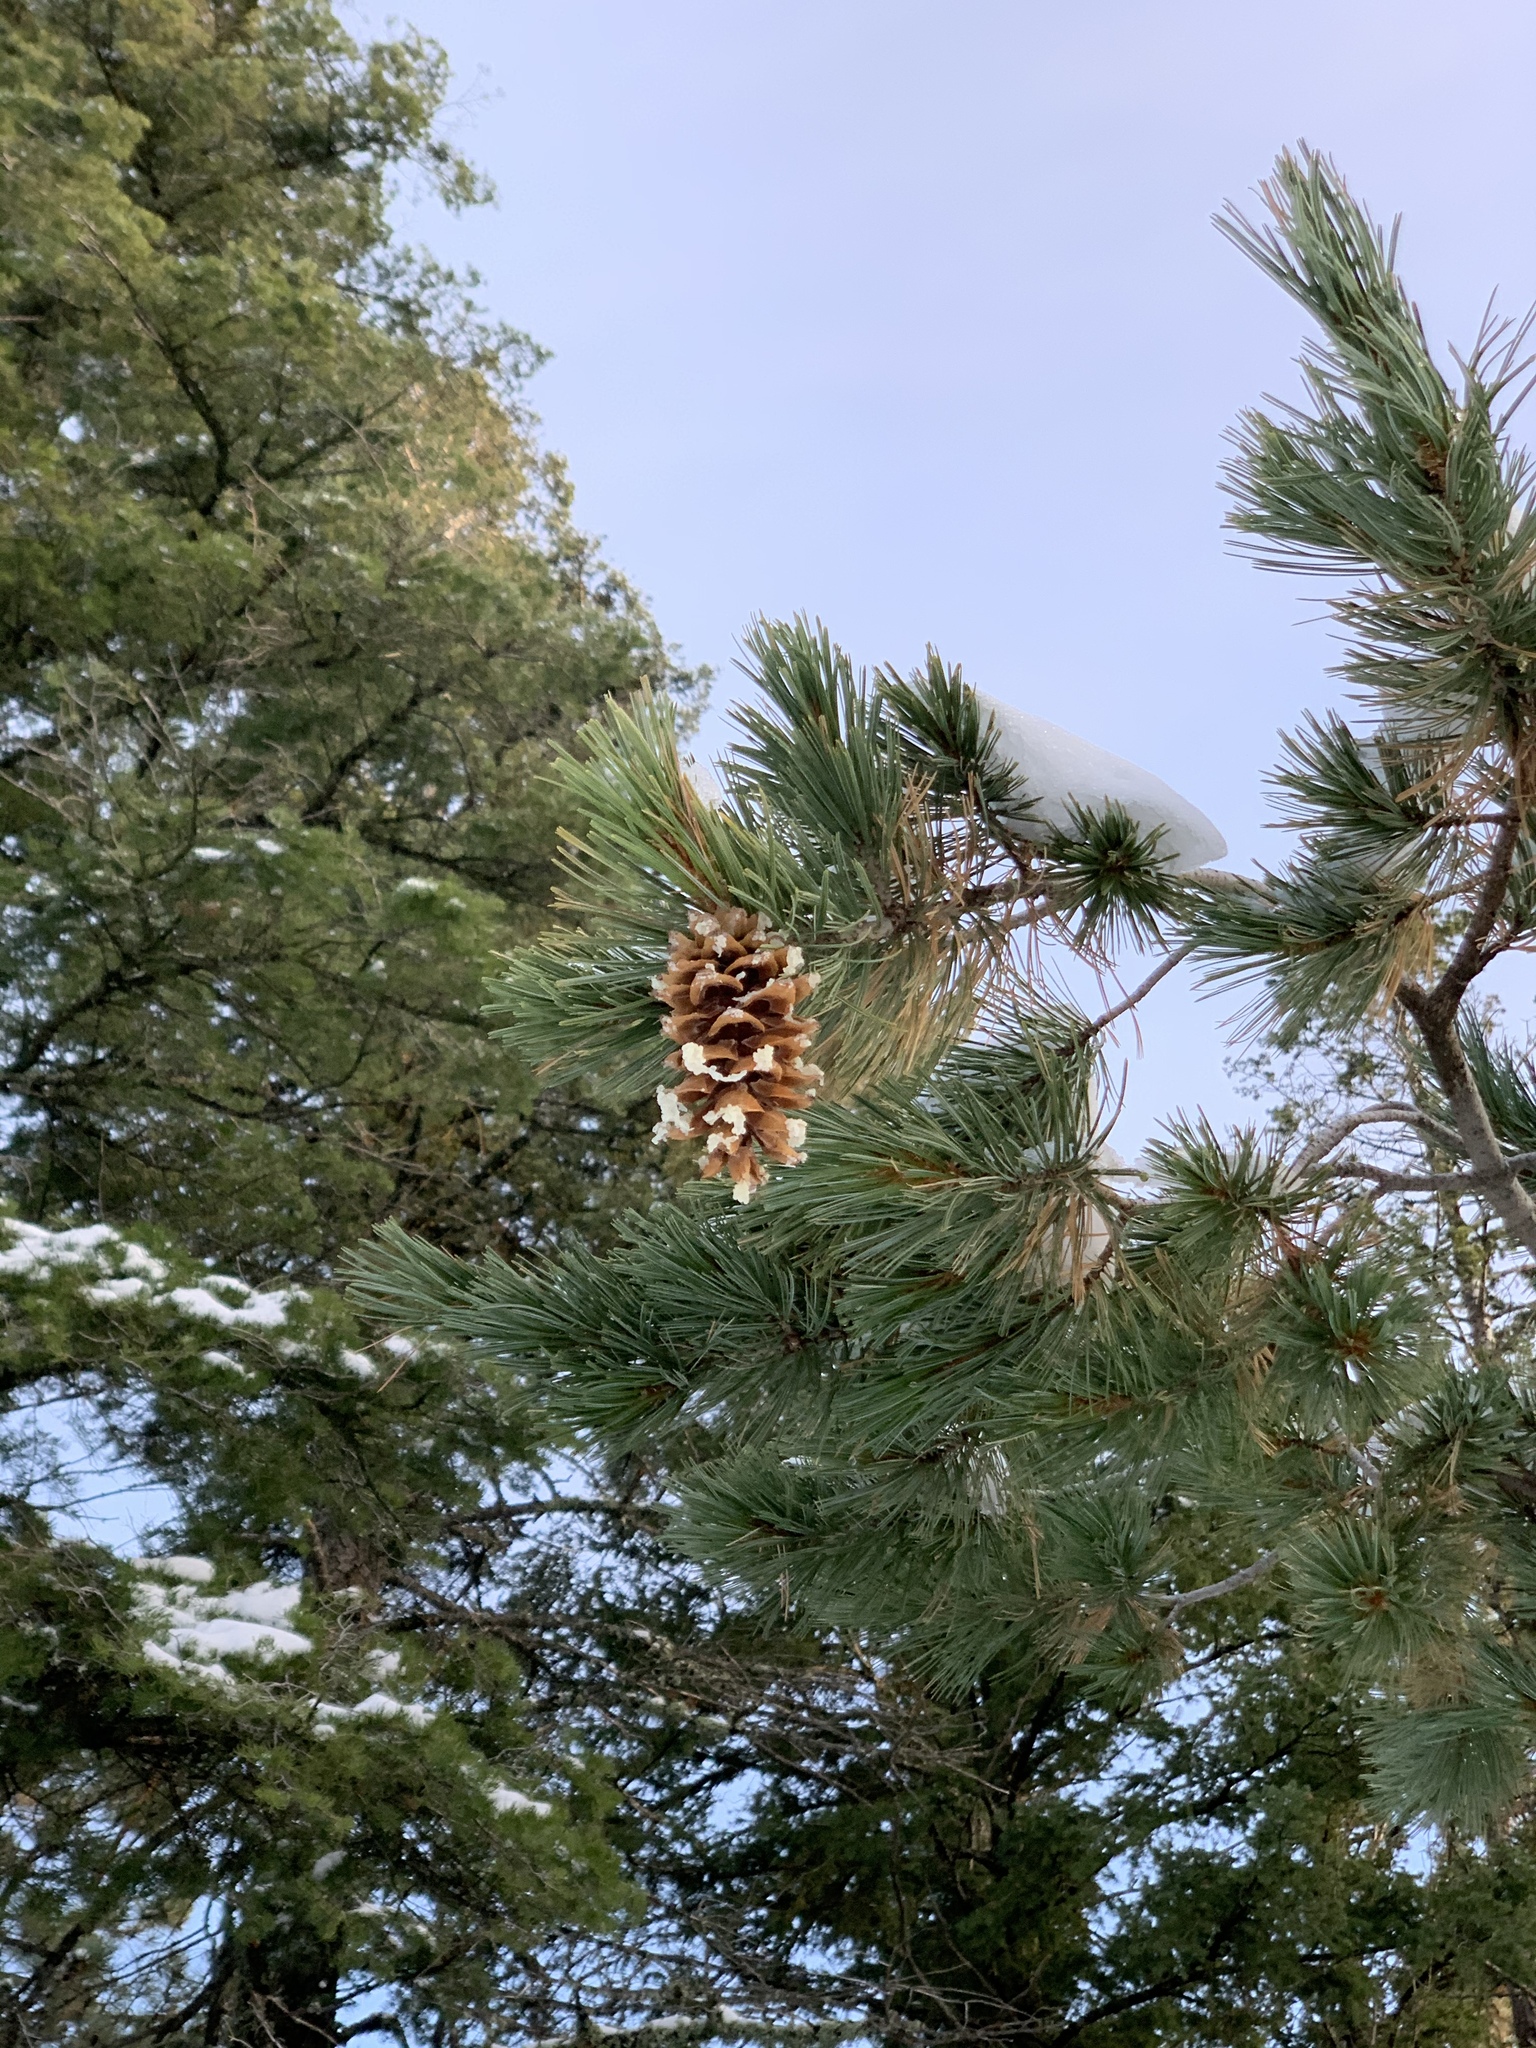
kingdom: Plantae
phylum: Tracheophyta
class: Pinopsida
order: Pinales
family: Pinaceae
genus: Pinus
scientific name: Pinus strobiformis
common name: Southwestern white pine
